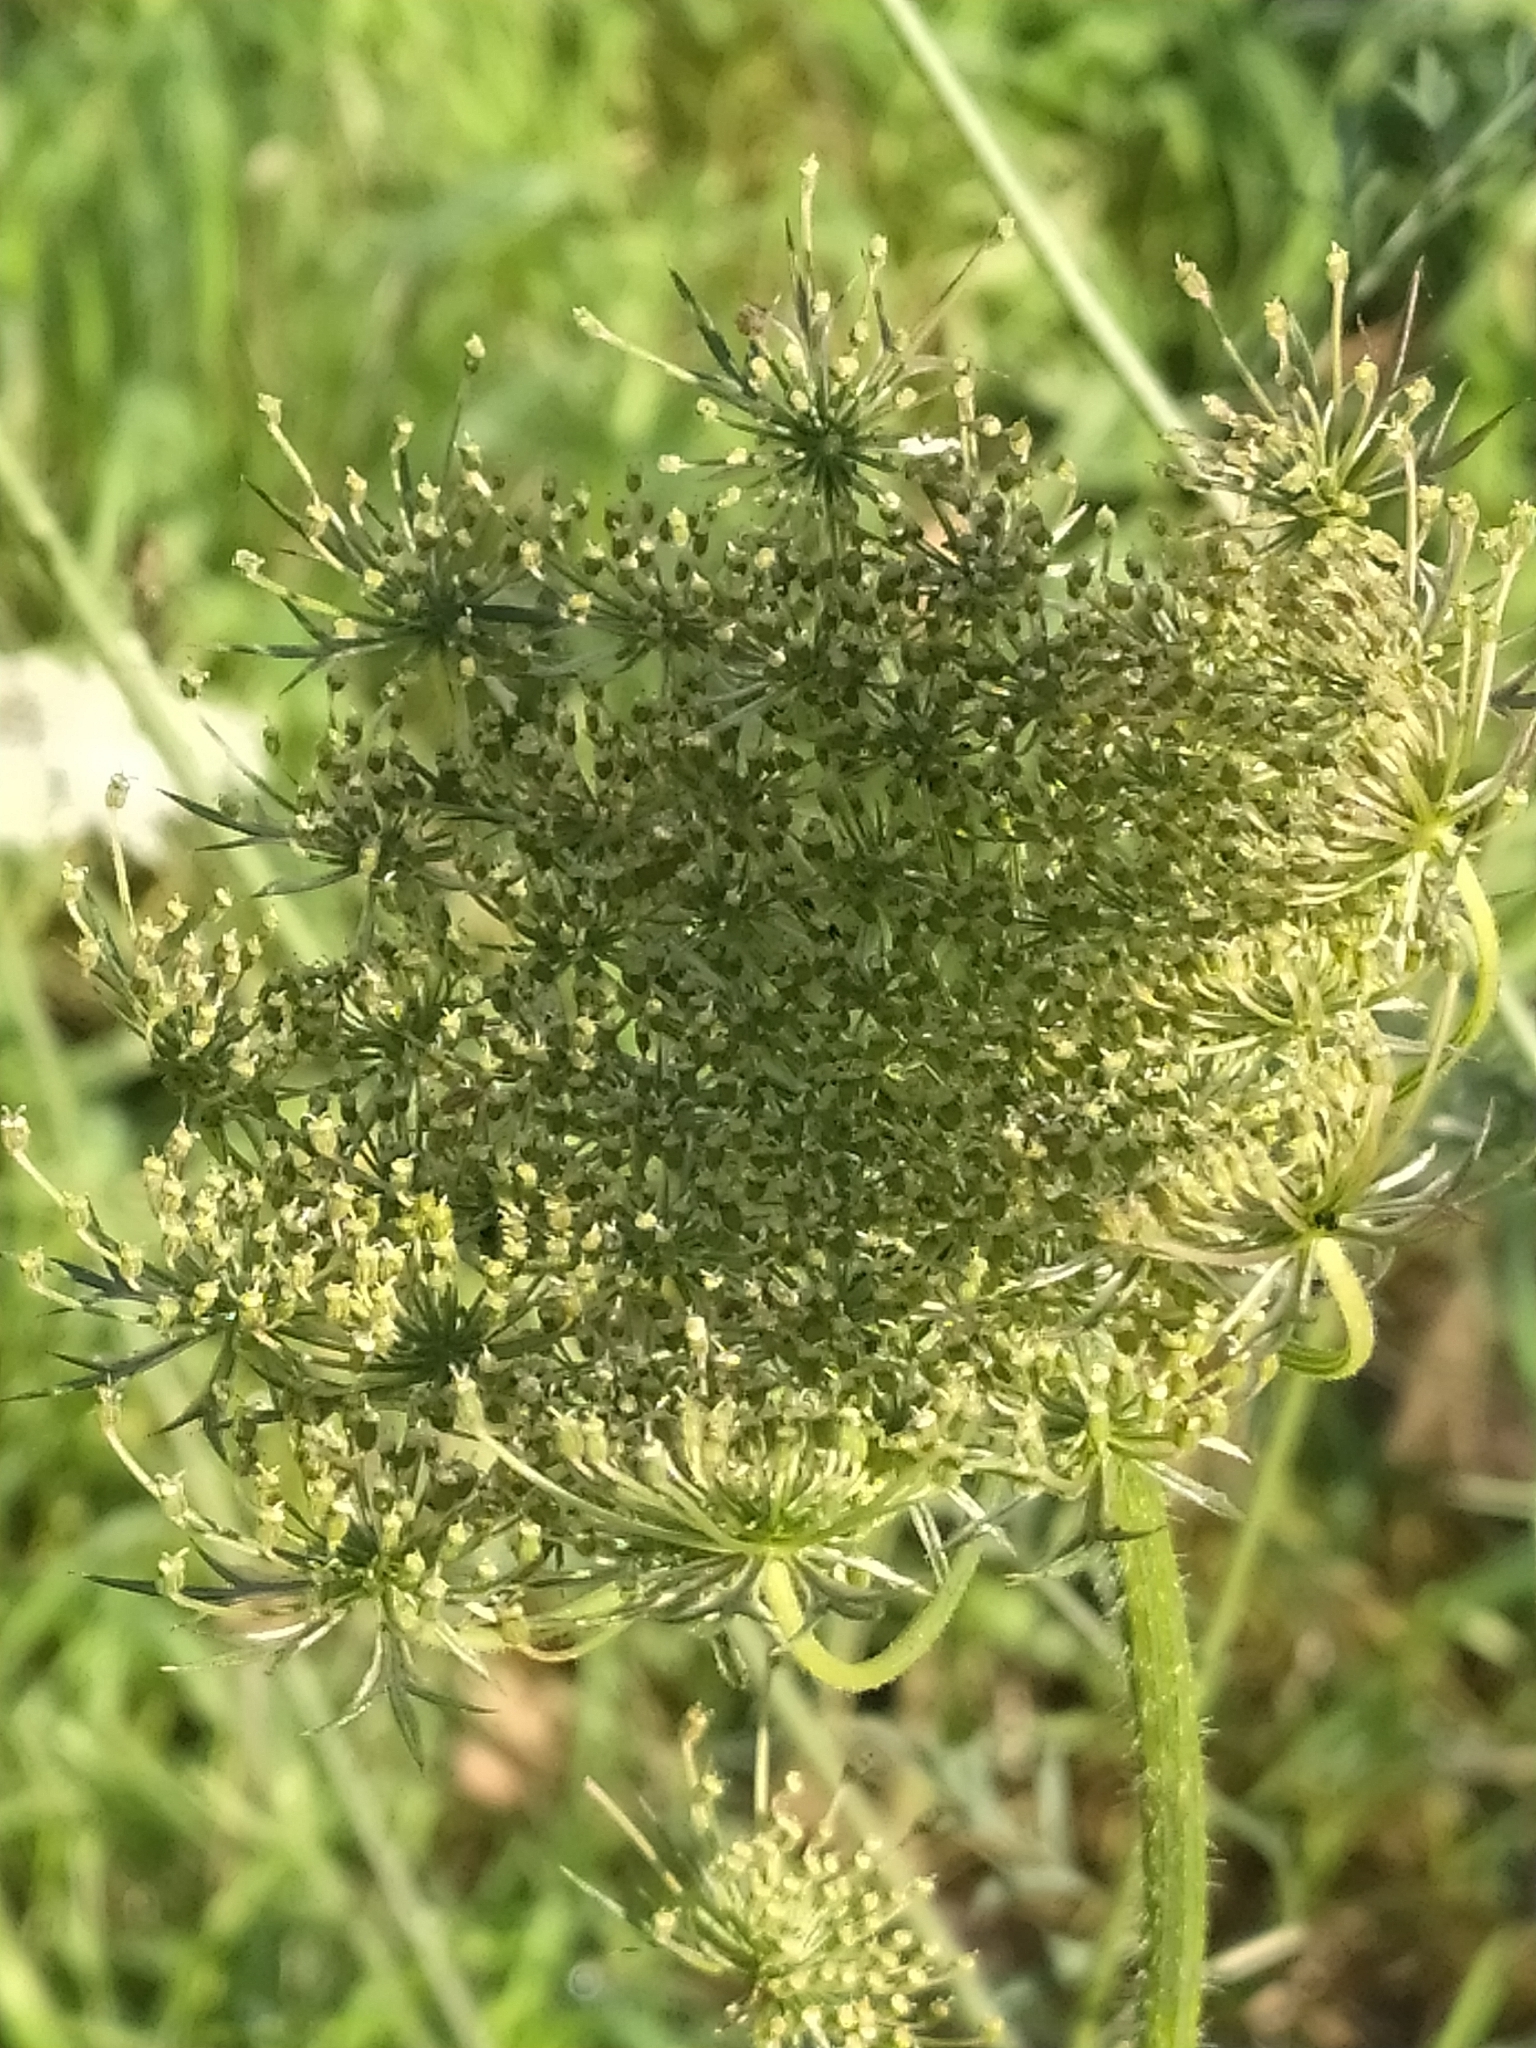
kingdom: Plantae
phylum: Tracheophyta
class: Magnoliopsida
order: Apiales
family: Apiaceae
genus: Daucus
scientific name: Daucus carota
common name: Wild carrot
